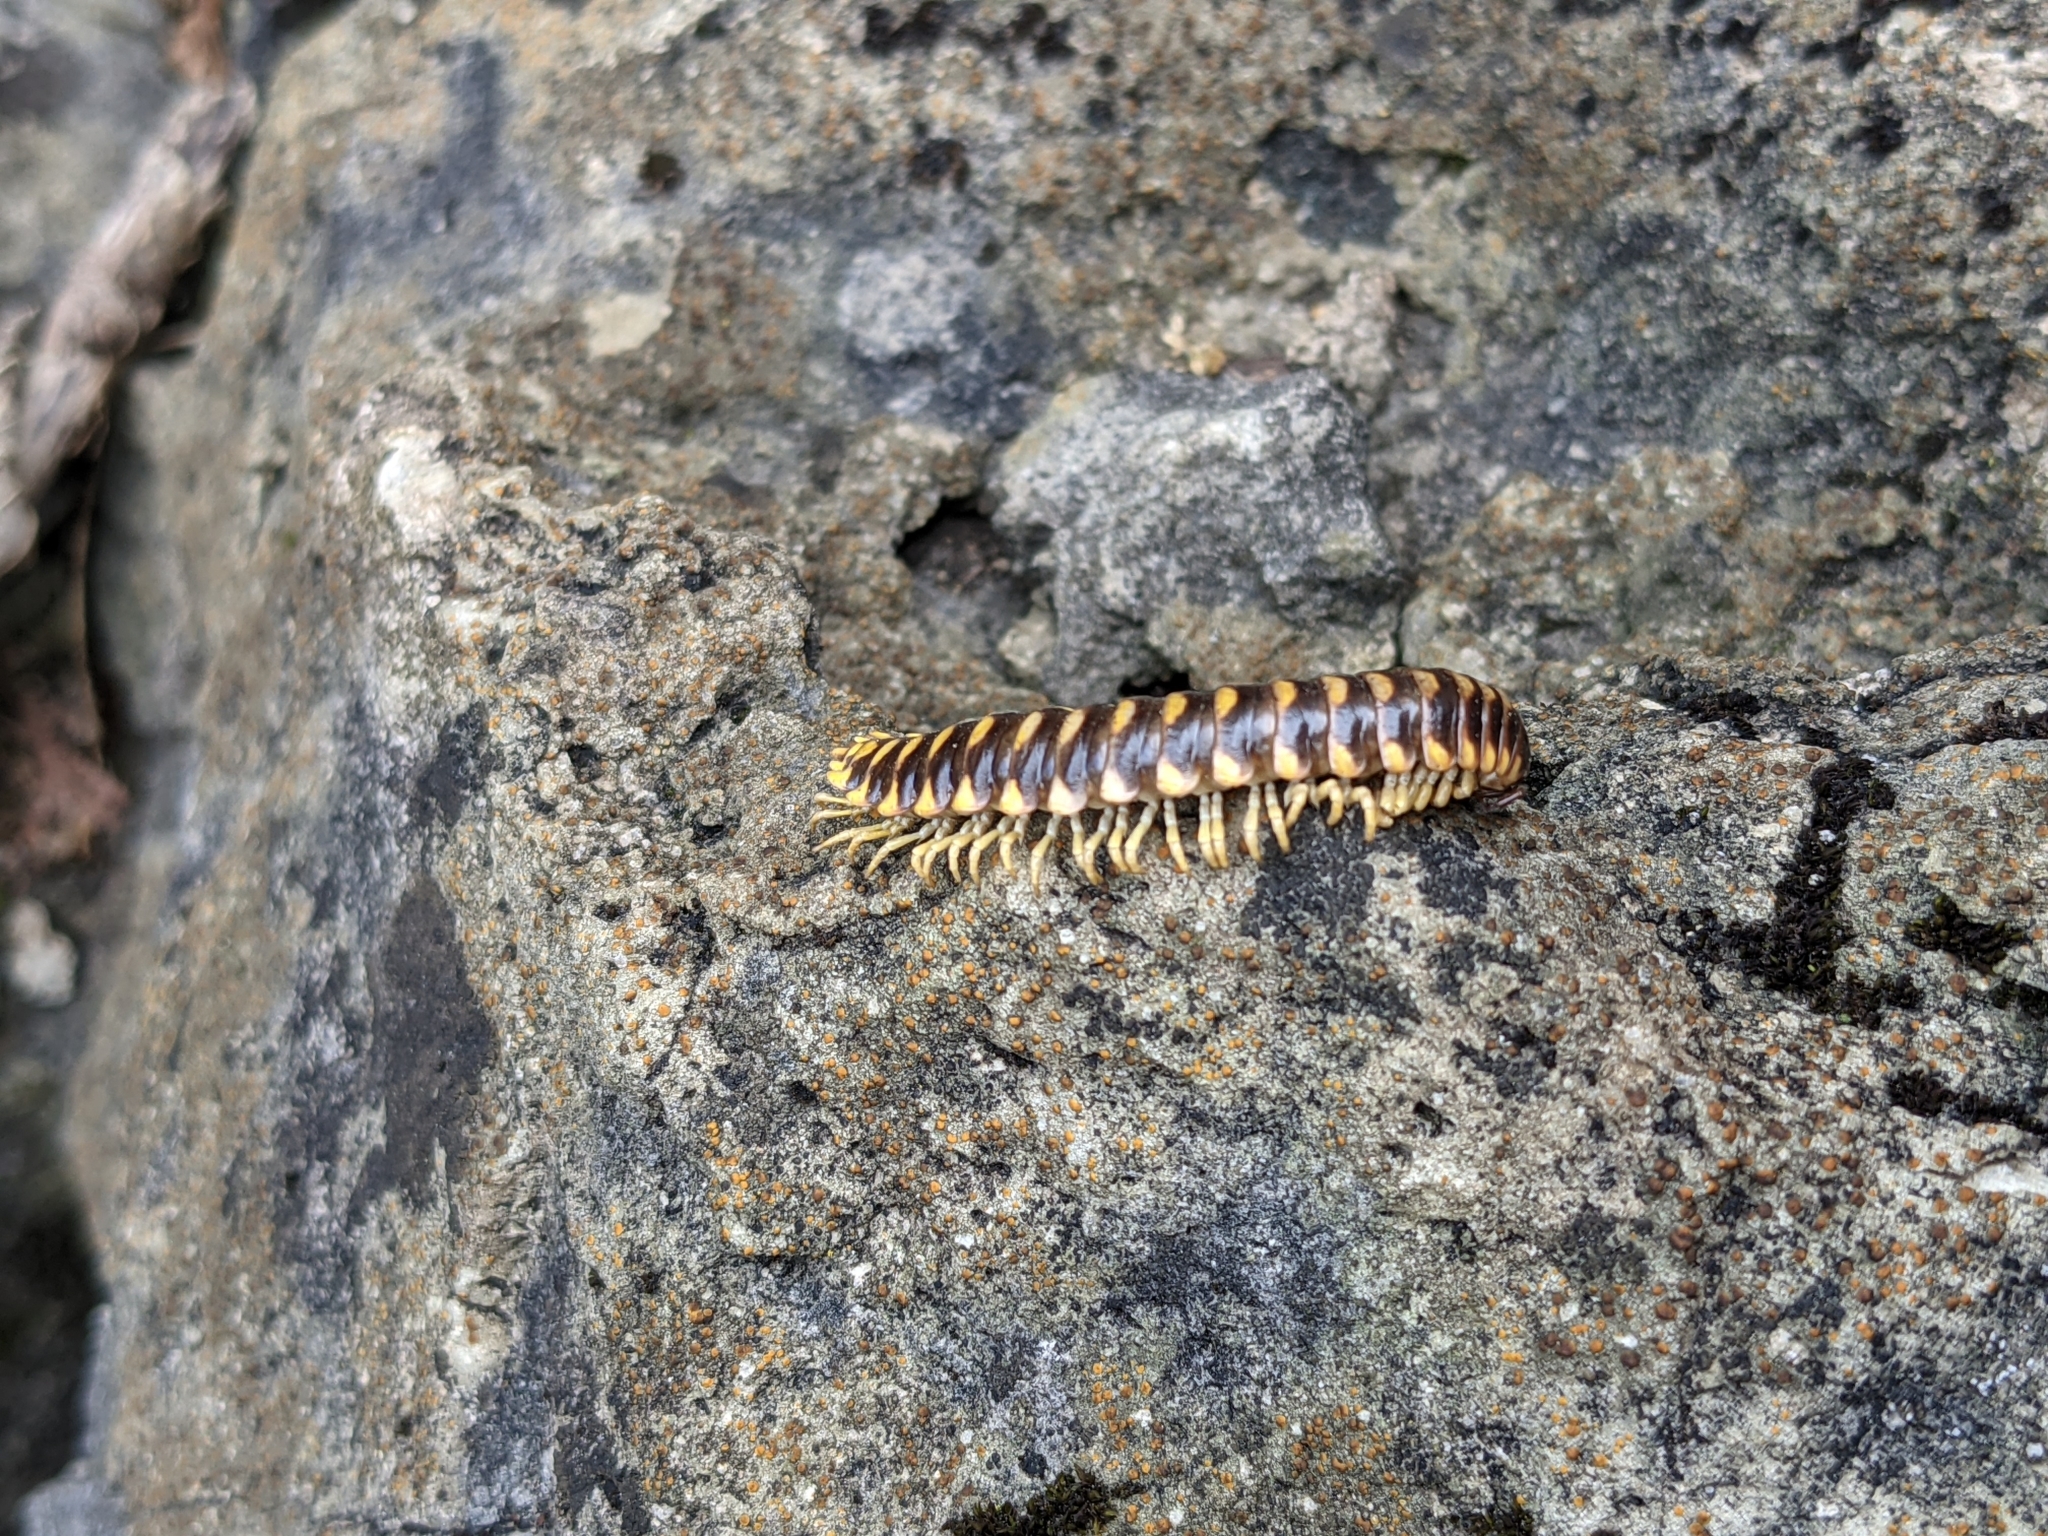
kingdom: Animalia
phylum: Arthropoda
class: Diplopoda
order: Polydesmida
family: Xystodesmidae
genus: Rudiloria
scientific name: Rudiloria trimaculata
